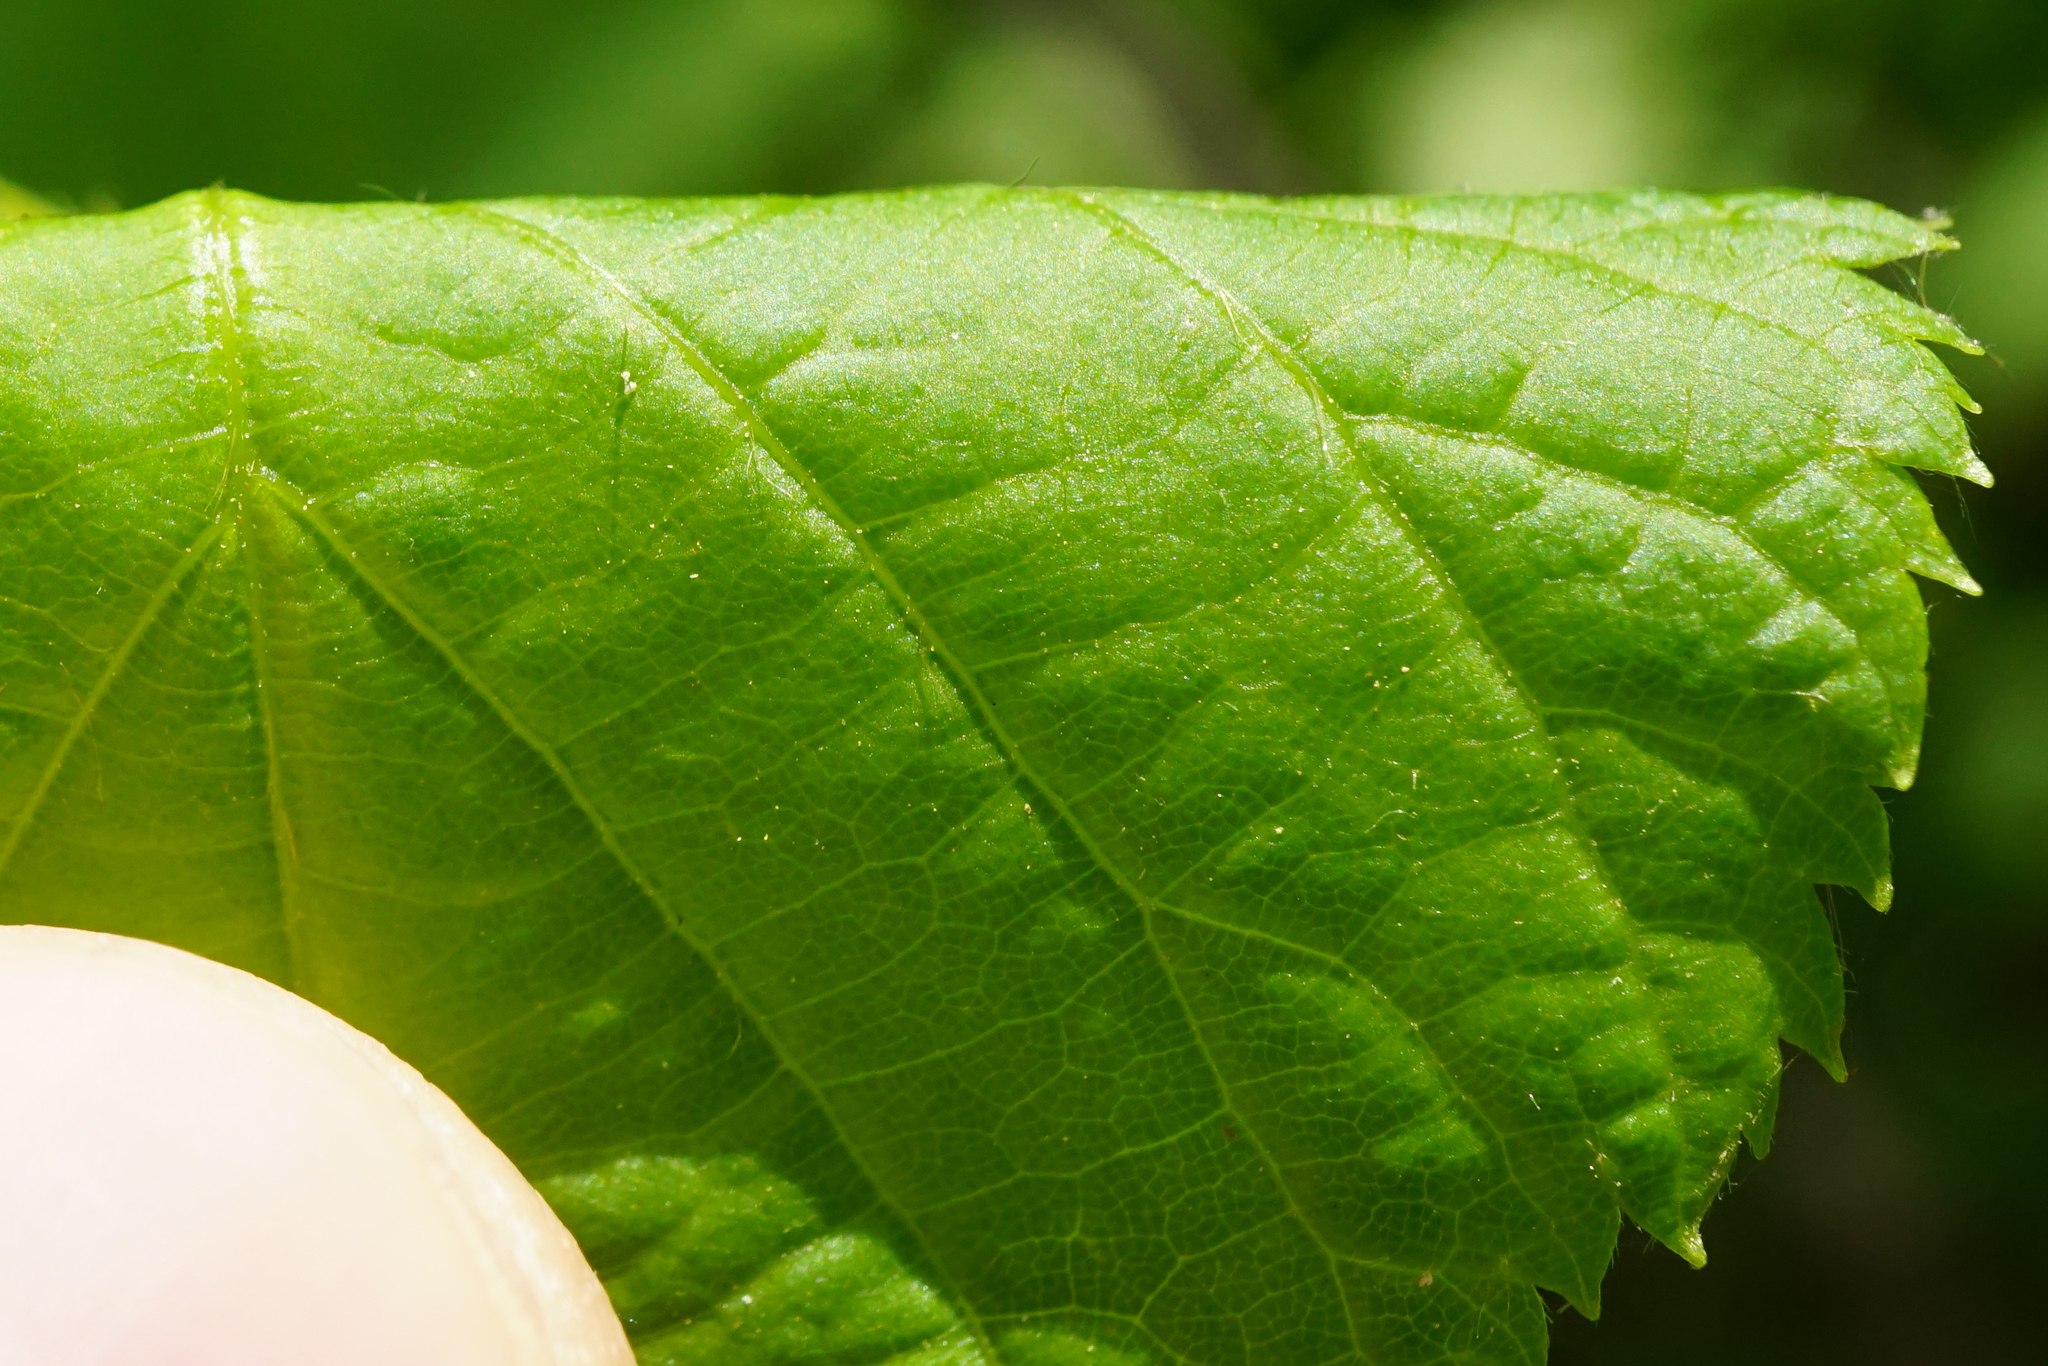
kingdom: Plantae
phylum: Tracheophyta
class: Magnoliopsida
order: Malvales
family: Malvaceae
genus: Tilia
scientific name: Tilia cordata
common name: Small-leaved lime
